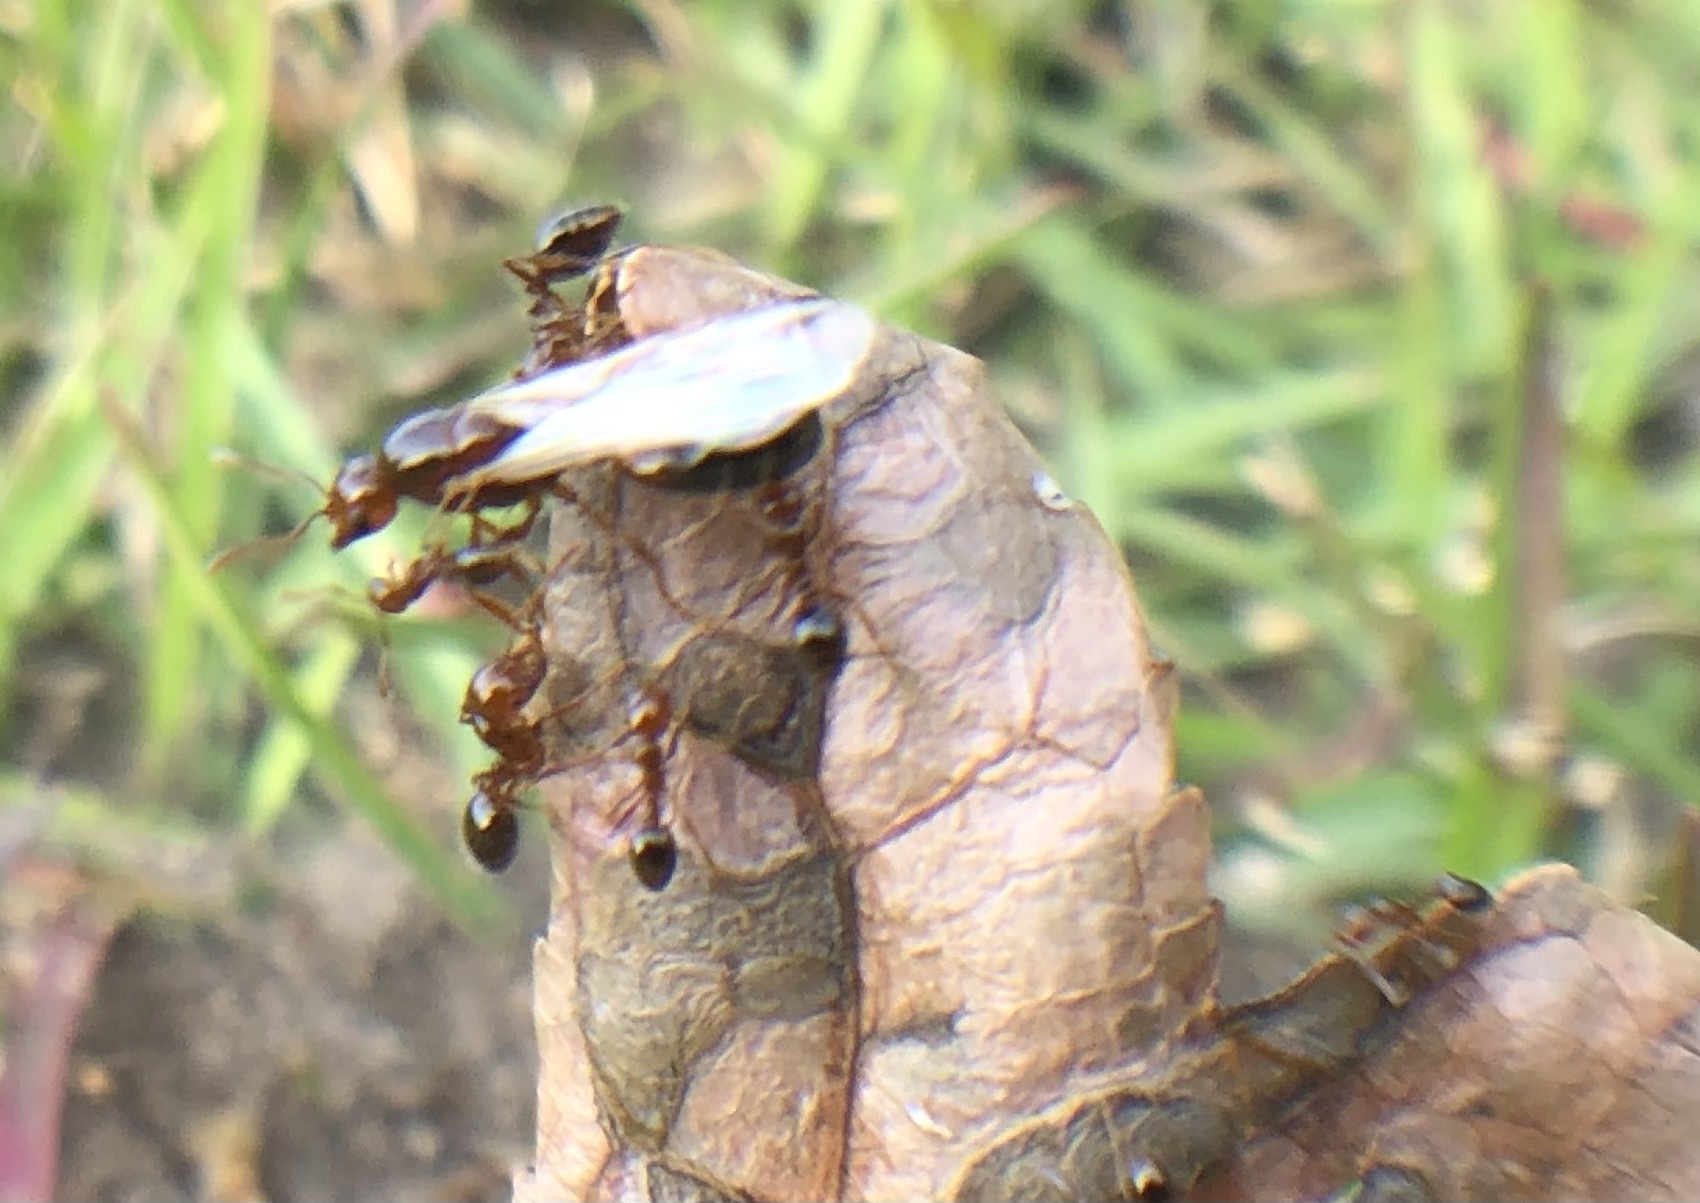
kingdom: Animalia
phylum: Arthropoda
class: Insecta
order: Hymenoptera
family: Formicidae
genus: Solenopsis
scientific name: Solenopsis invicta
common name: Red imported fire ant
